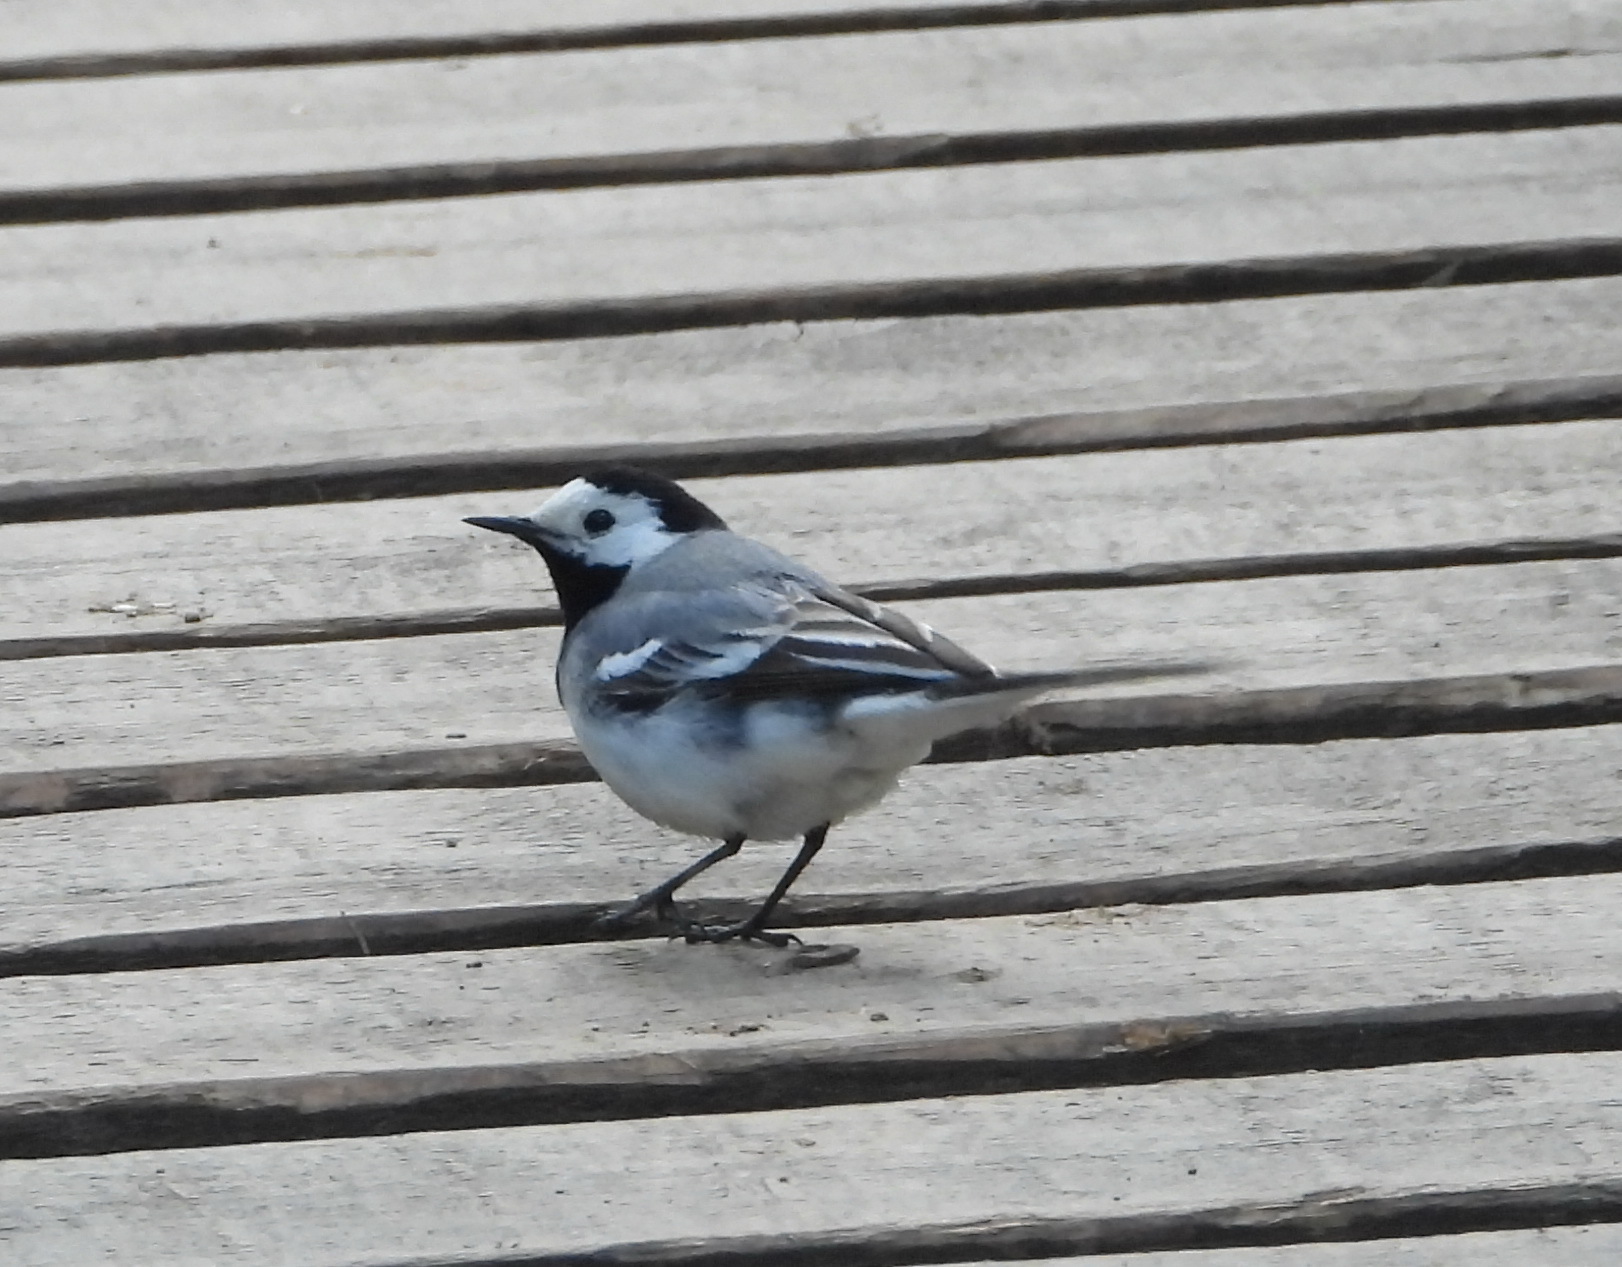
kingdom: Animalia
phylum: Chordata
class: Aves
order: Passeriformes
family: Motacillidae
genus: Motacilla
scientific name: Motacilla alba
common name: White wagtail
